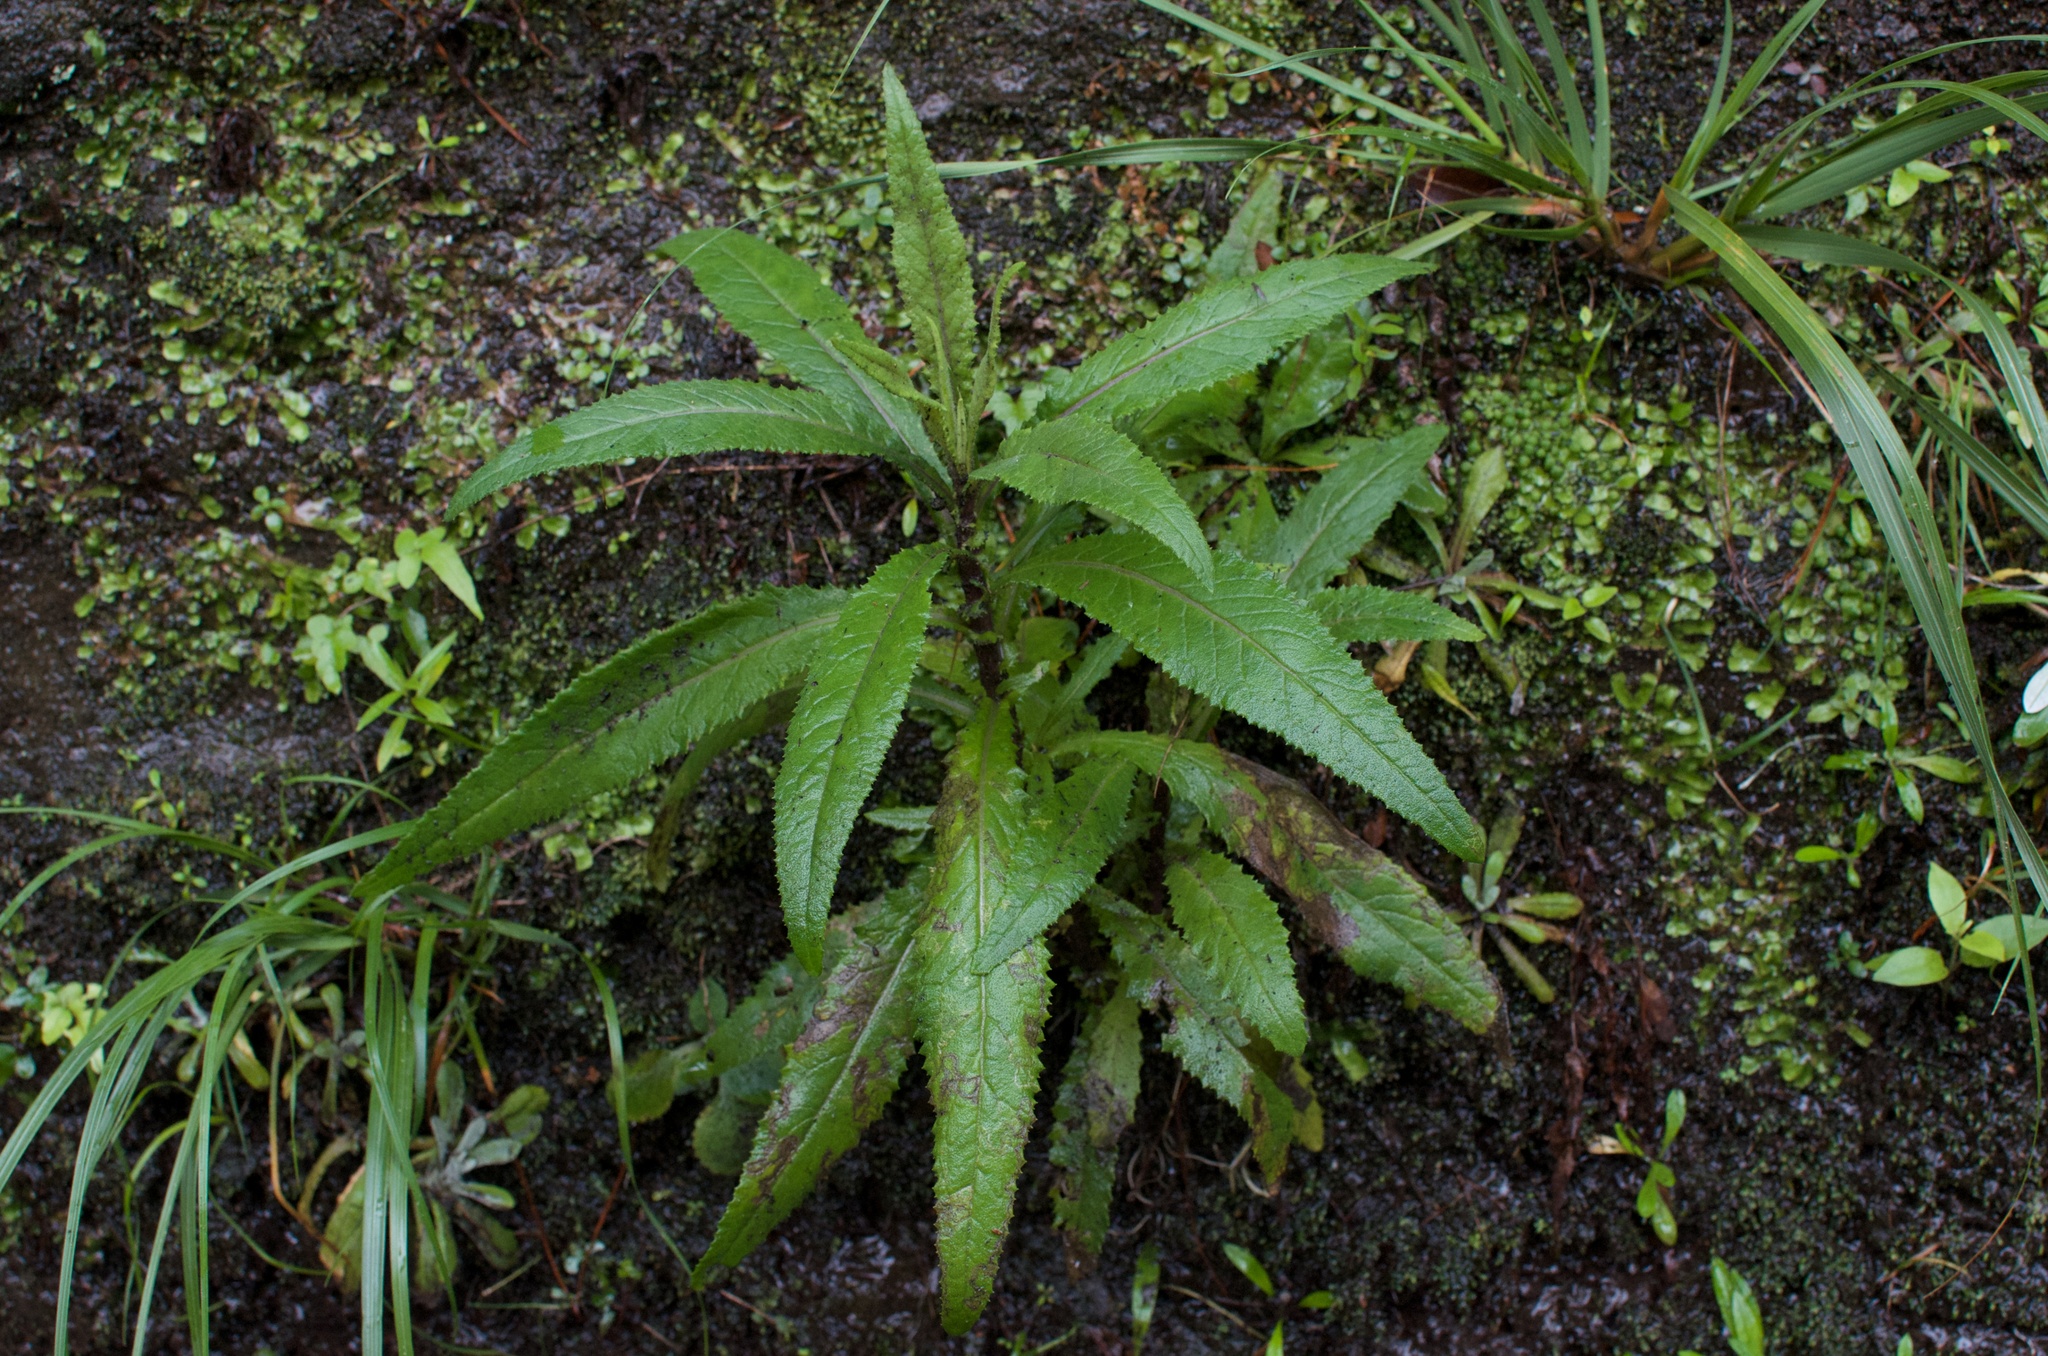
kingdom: Plantae
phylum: Tracheophyta
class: Magnoliopsida
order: Asterales
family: Asteraceae
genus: Senecio
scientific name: Senecio minimus
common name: Toothed fireweed
